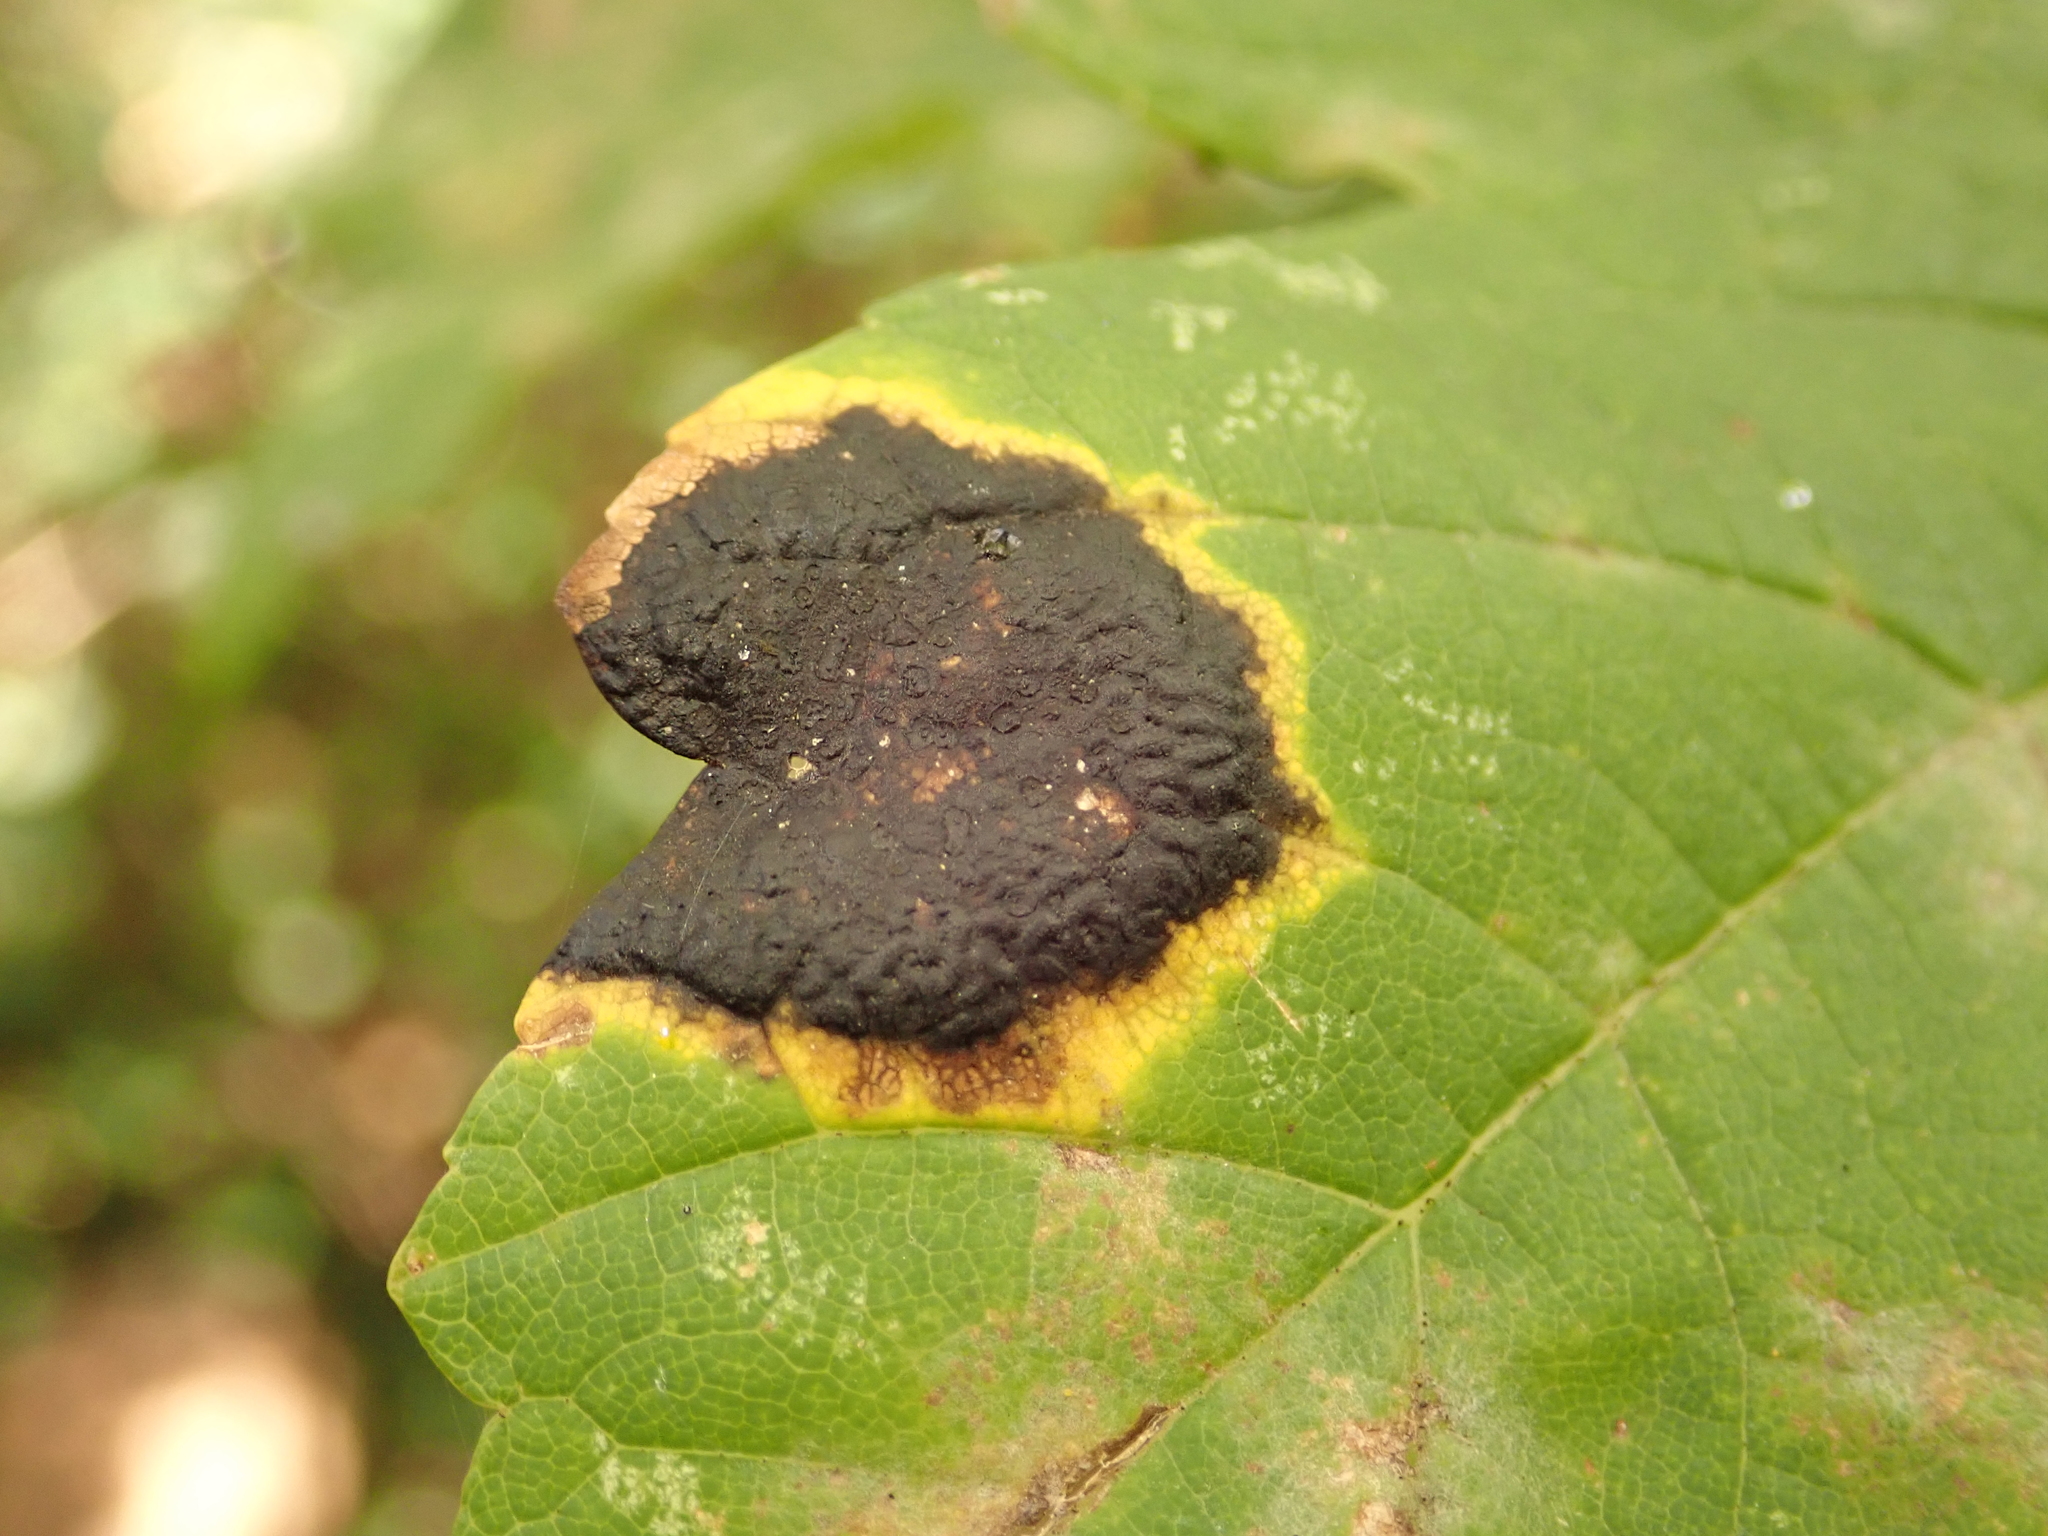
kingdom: Fungi
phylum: Ascomycota
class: Leotiomycetes
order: Rhytismatales
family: Rhytismataceae
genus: Rhytisma
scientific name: Rhytisma acerinum
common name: European tar spot
